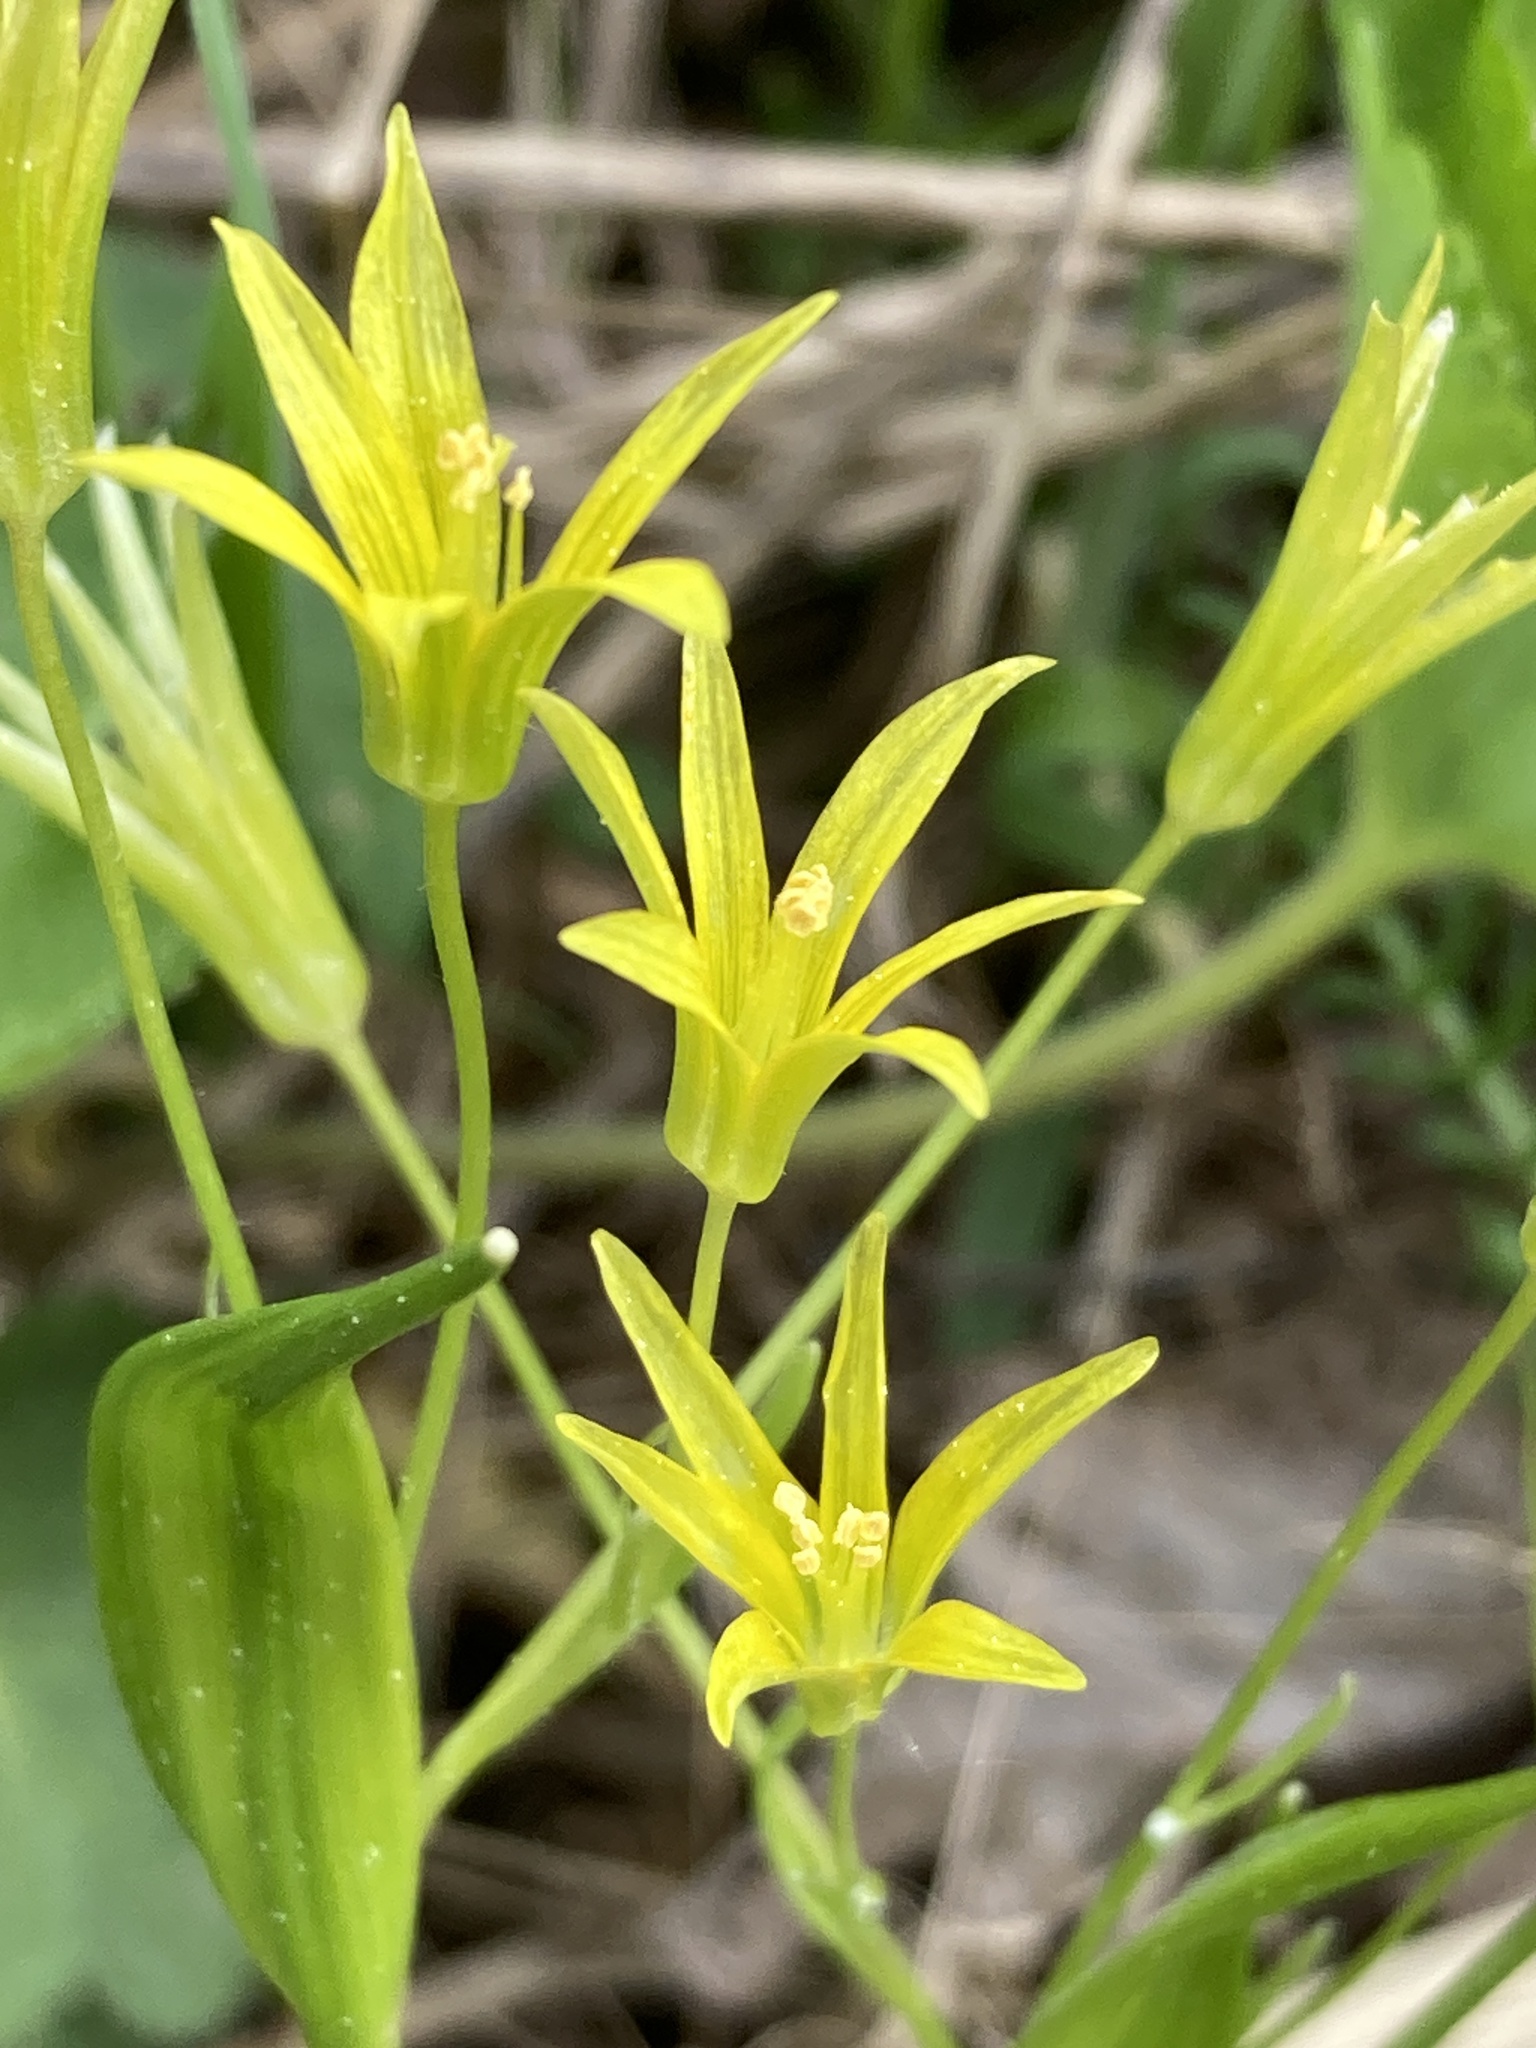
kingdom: Plantae
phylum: Tracheophyta
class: Liliopsida
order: Liliales
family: Liliaceae
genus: Gagea
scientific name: Gagea minima
